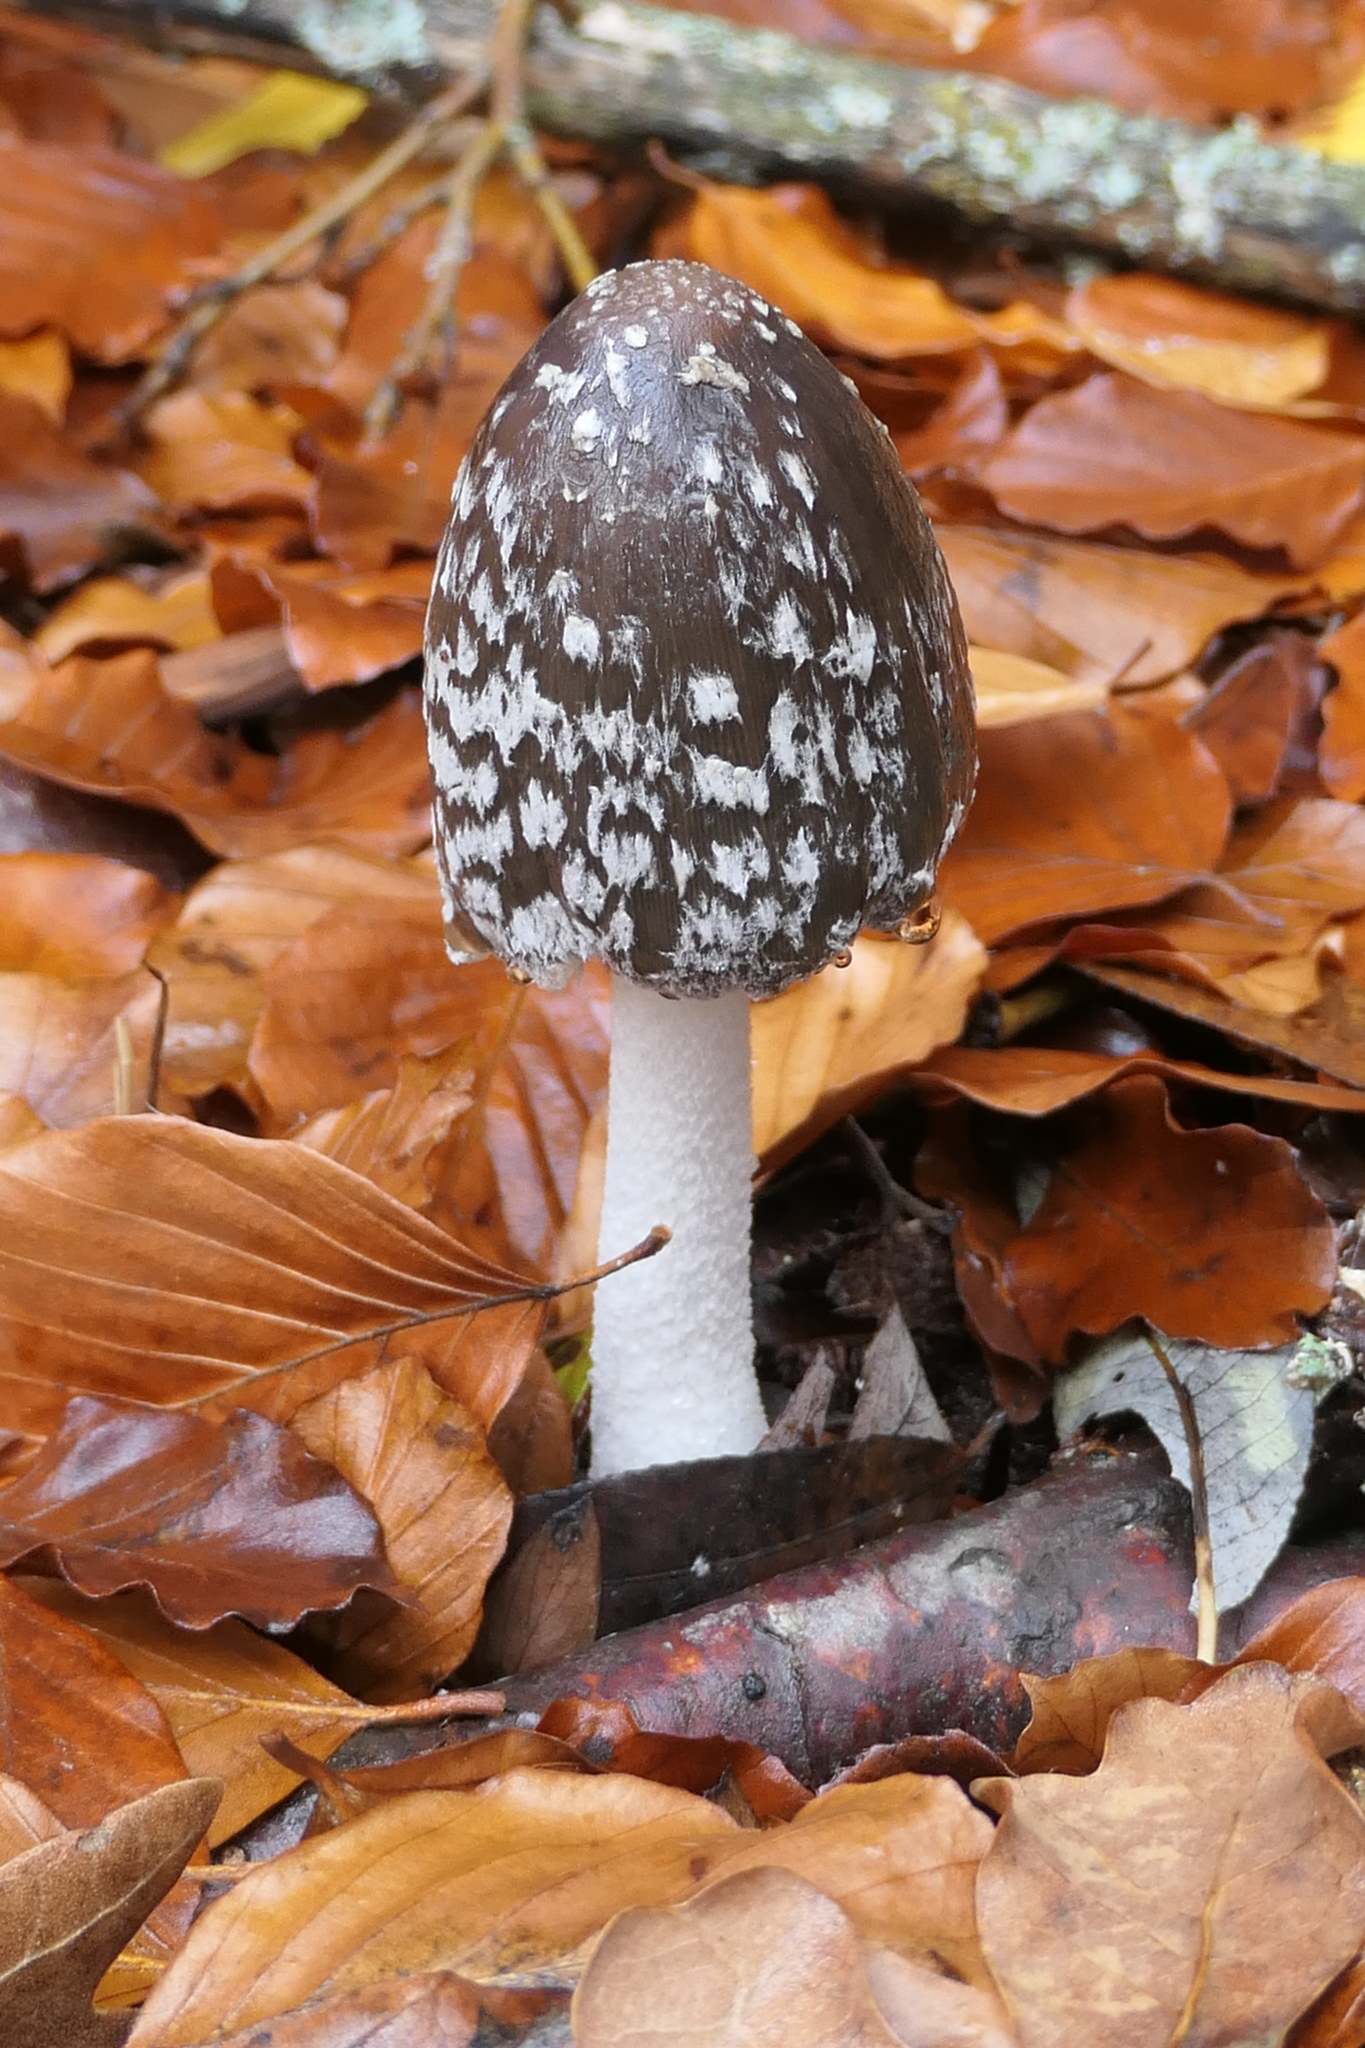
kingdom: Fungi
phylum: Basidiomycota
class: Agaricomycetes
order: Agaricales
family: Psathyrellaceae
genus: Coprinopsis
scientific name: Coprinopsis picacea
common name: Magpie inkcap
